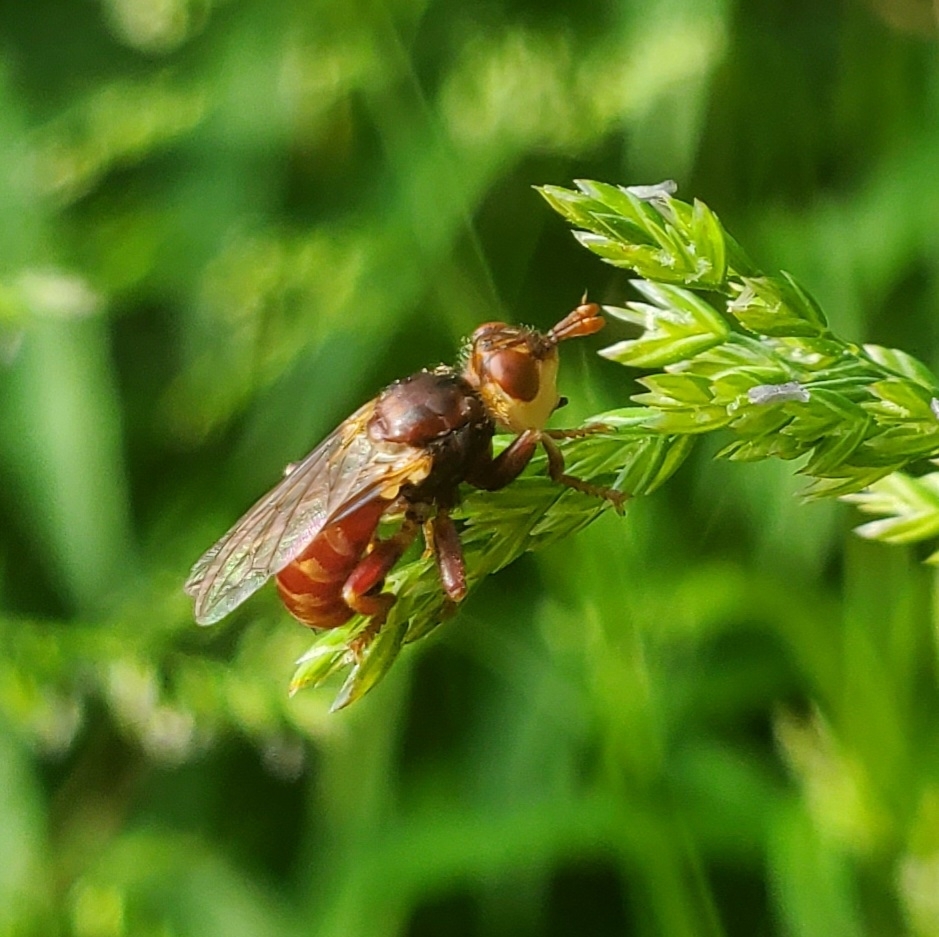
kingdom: Animalia
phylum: Arthropoda
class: Insecta
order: Diptera
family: Conopidae
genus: Myopa
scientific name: Myopa clausa
